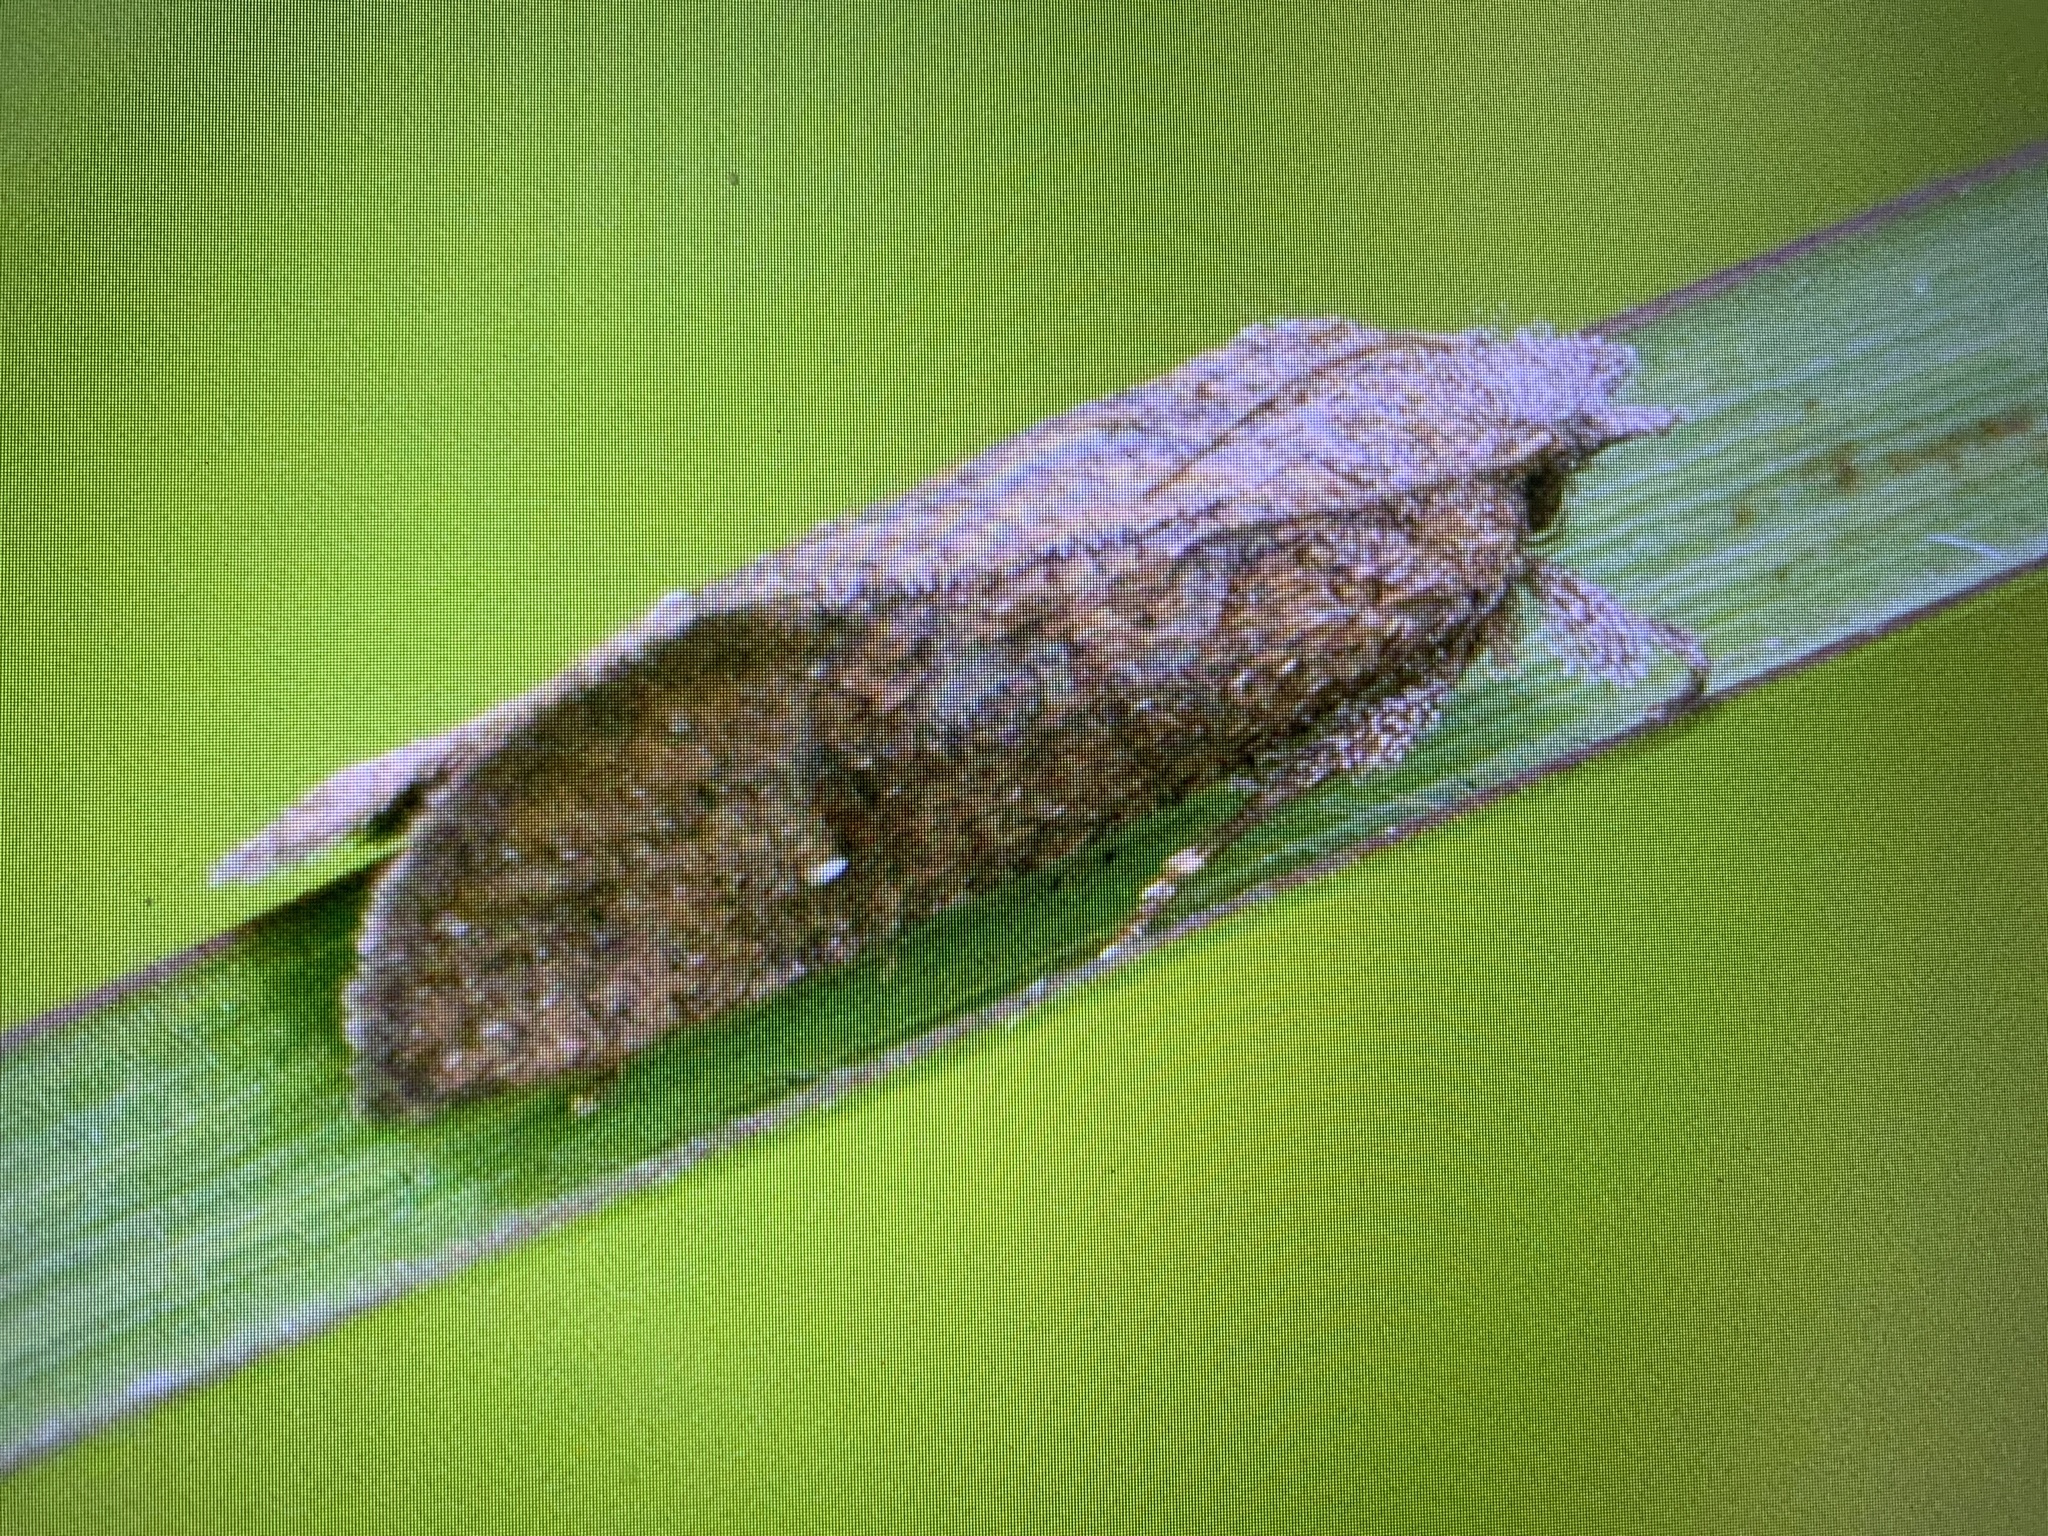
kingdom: Animalia
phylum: Arthropoda
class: Insecta
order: Lepidoptera
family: Tineidae
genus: Acrolophus
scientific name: Acrolophus walsinghami
